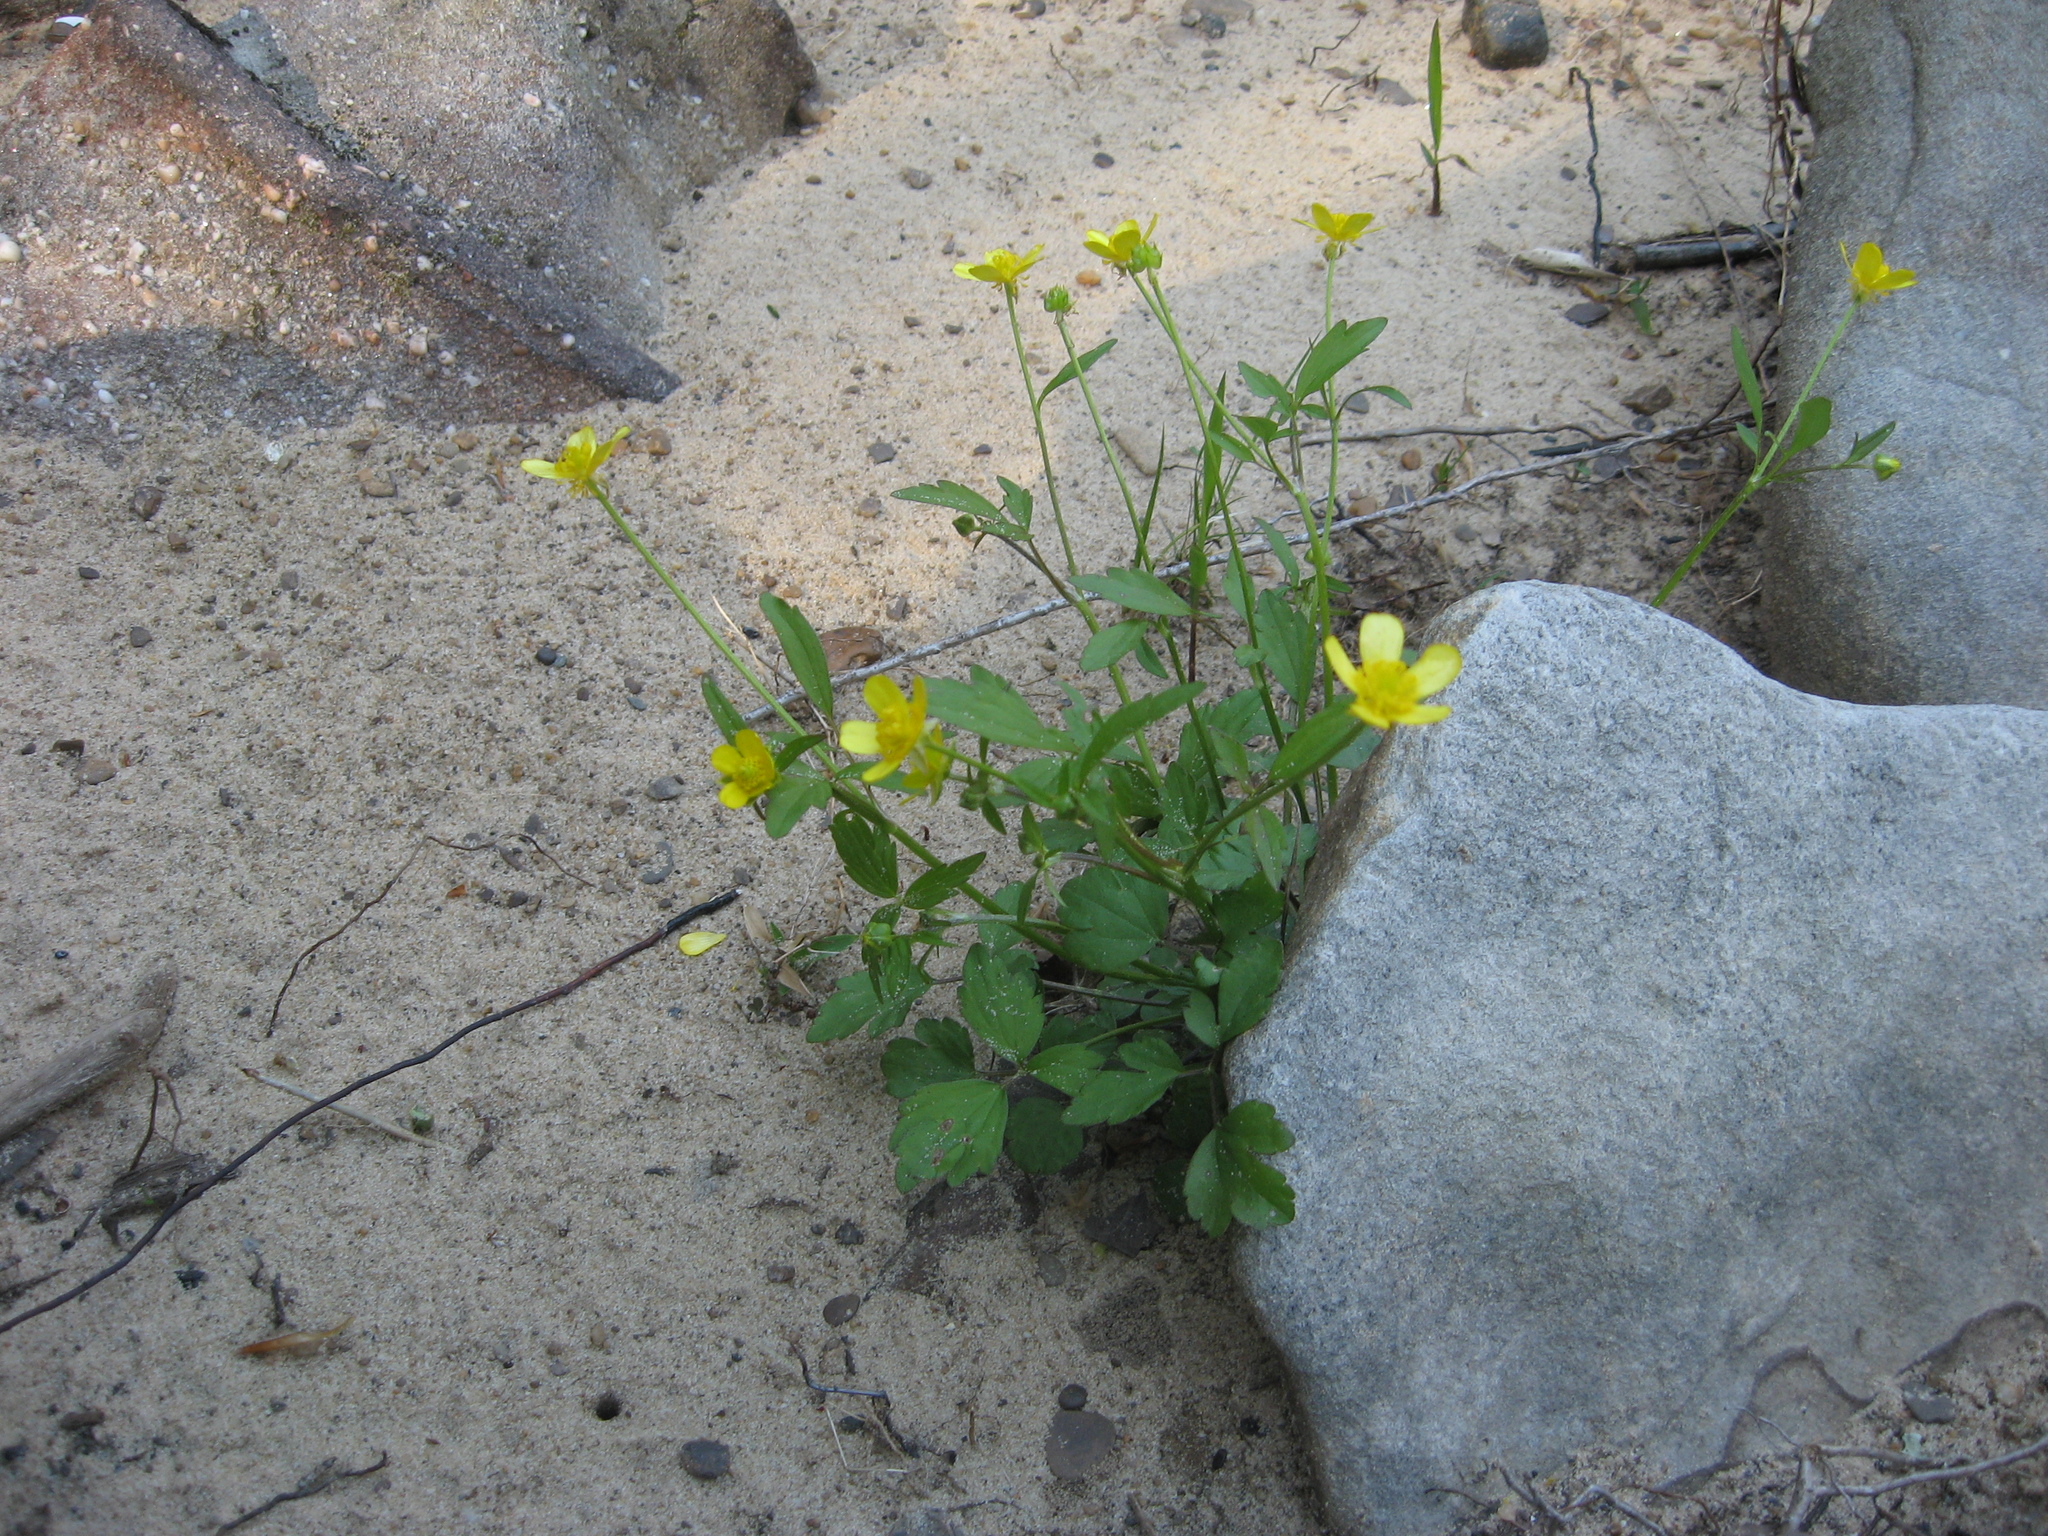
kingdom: Plantae
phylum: Tracheophyta
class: Magnoliopsida
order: Ranunculales
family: Ranunculaceae
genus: Ranunculus
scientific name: Ranunculus hispidus
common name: Bristly buttercup
